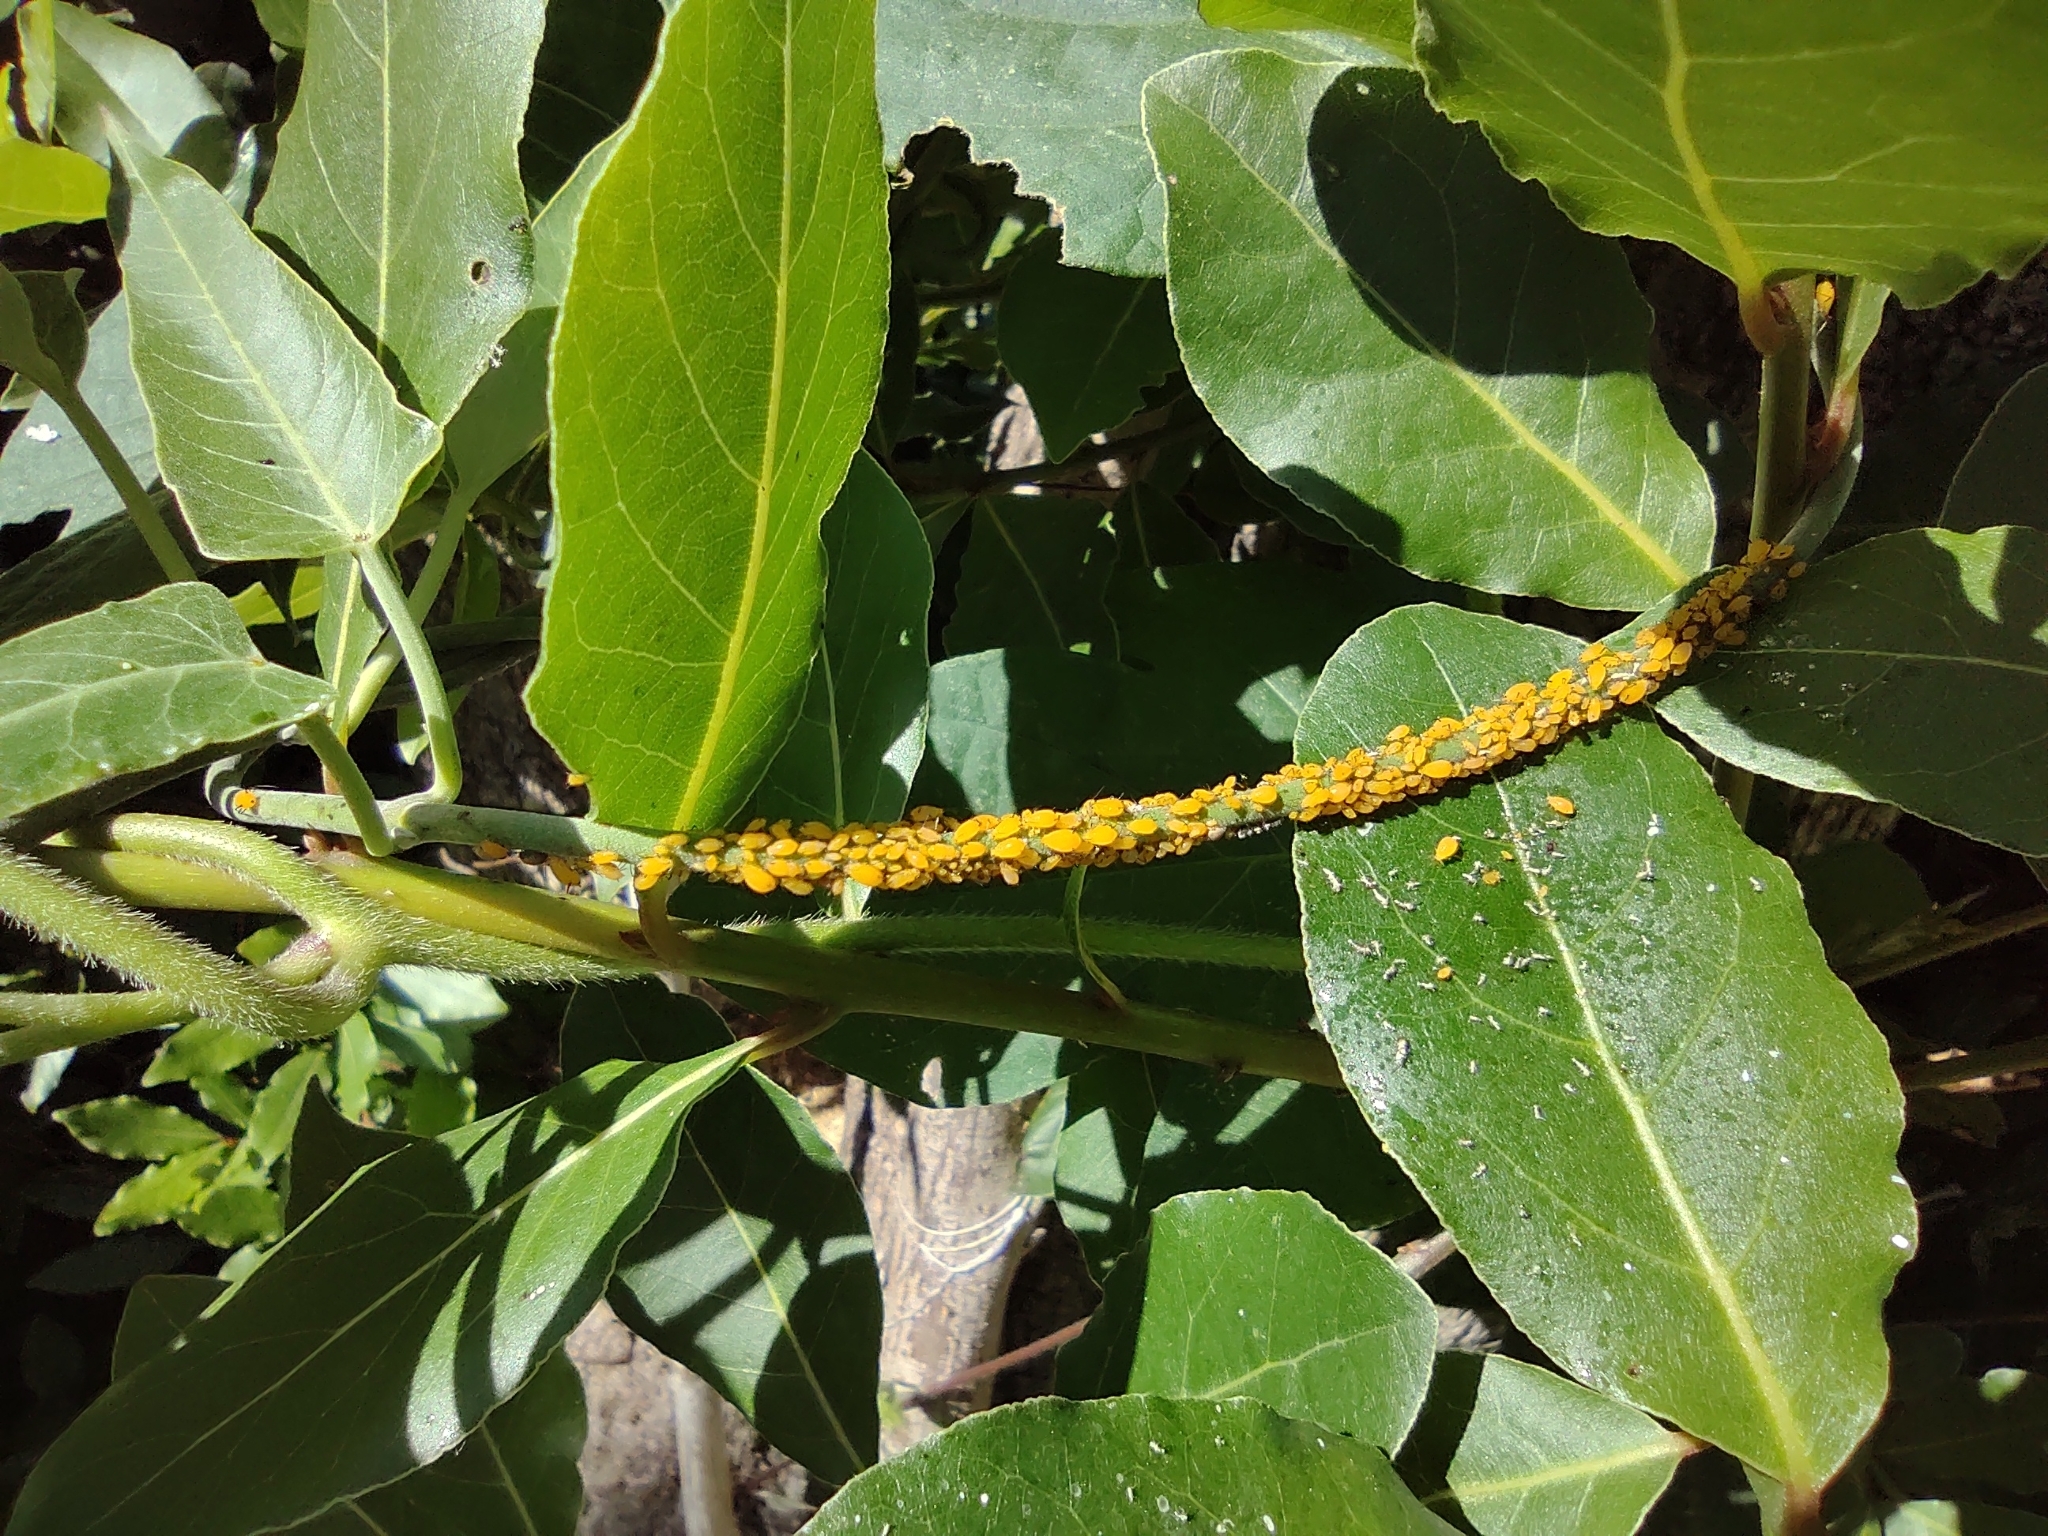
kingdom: Animalia
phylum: Arthropoda
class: Insecta
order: Hemiptera
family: Aphididae
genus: Aphis
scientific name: Aphis nerii
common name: Oleander aphid
